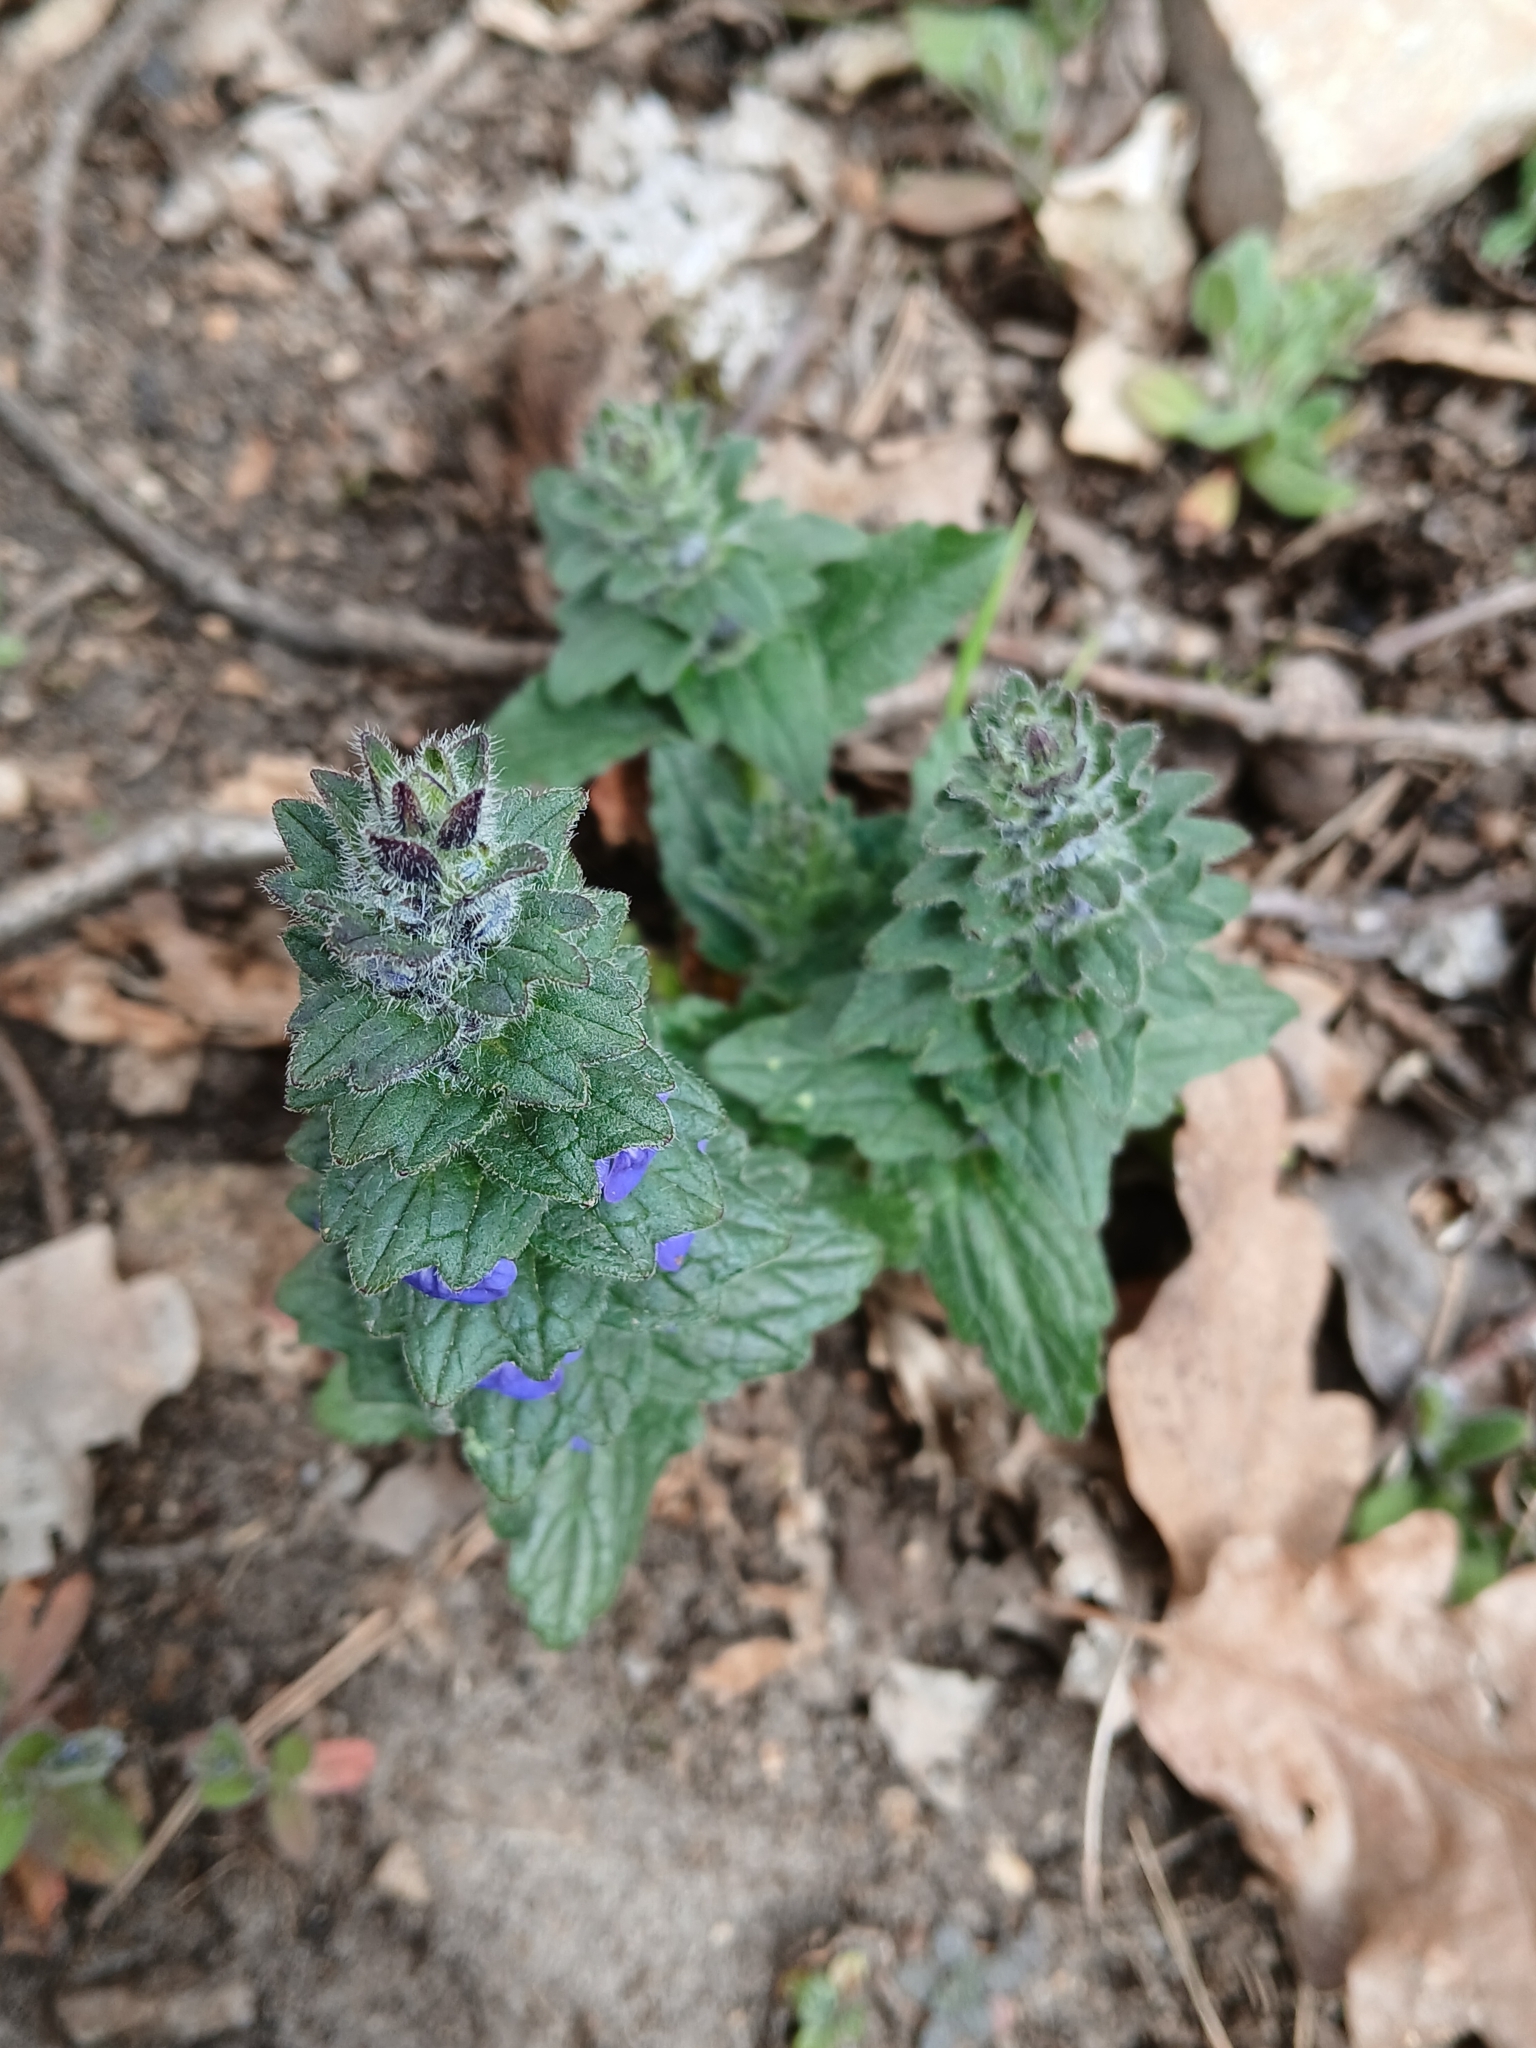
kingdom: Plantae
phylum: Tracheophyta
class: Magnoliopsida
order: Lamiales
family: Lamiaceae
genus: Ajuga
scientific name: Ajuga genevensis
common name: Blue bugle
